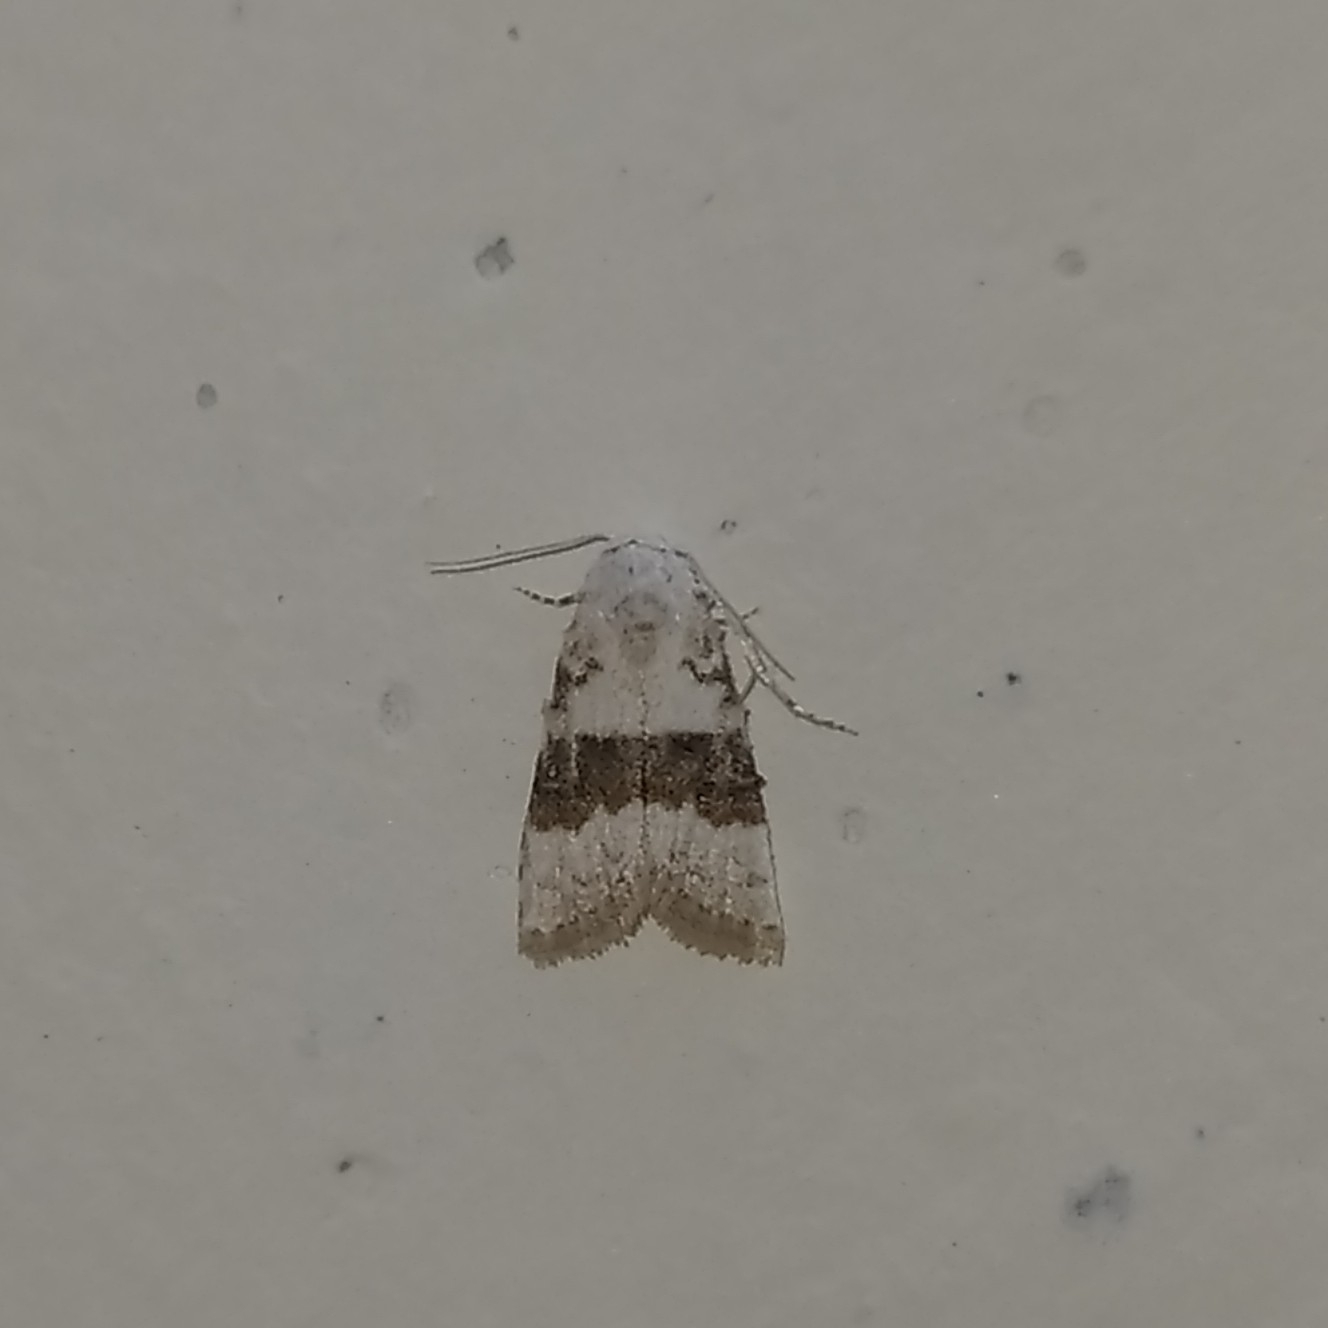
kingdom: Animalia
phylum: Arthropoda
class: Insecta
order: Lepidoptera
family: Nolidae
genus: Nola
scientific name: Nola taeniata
